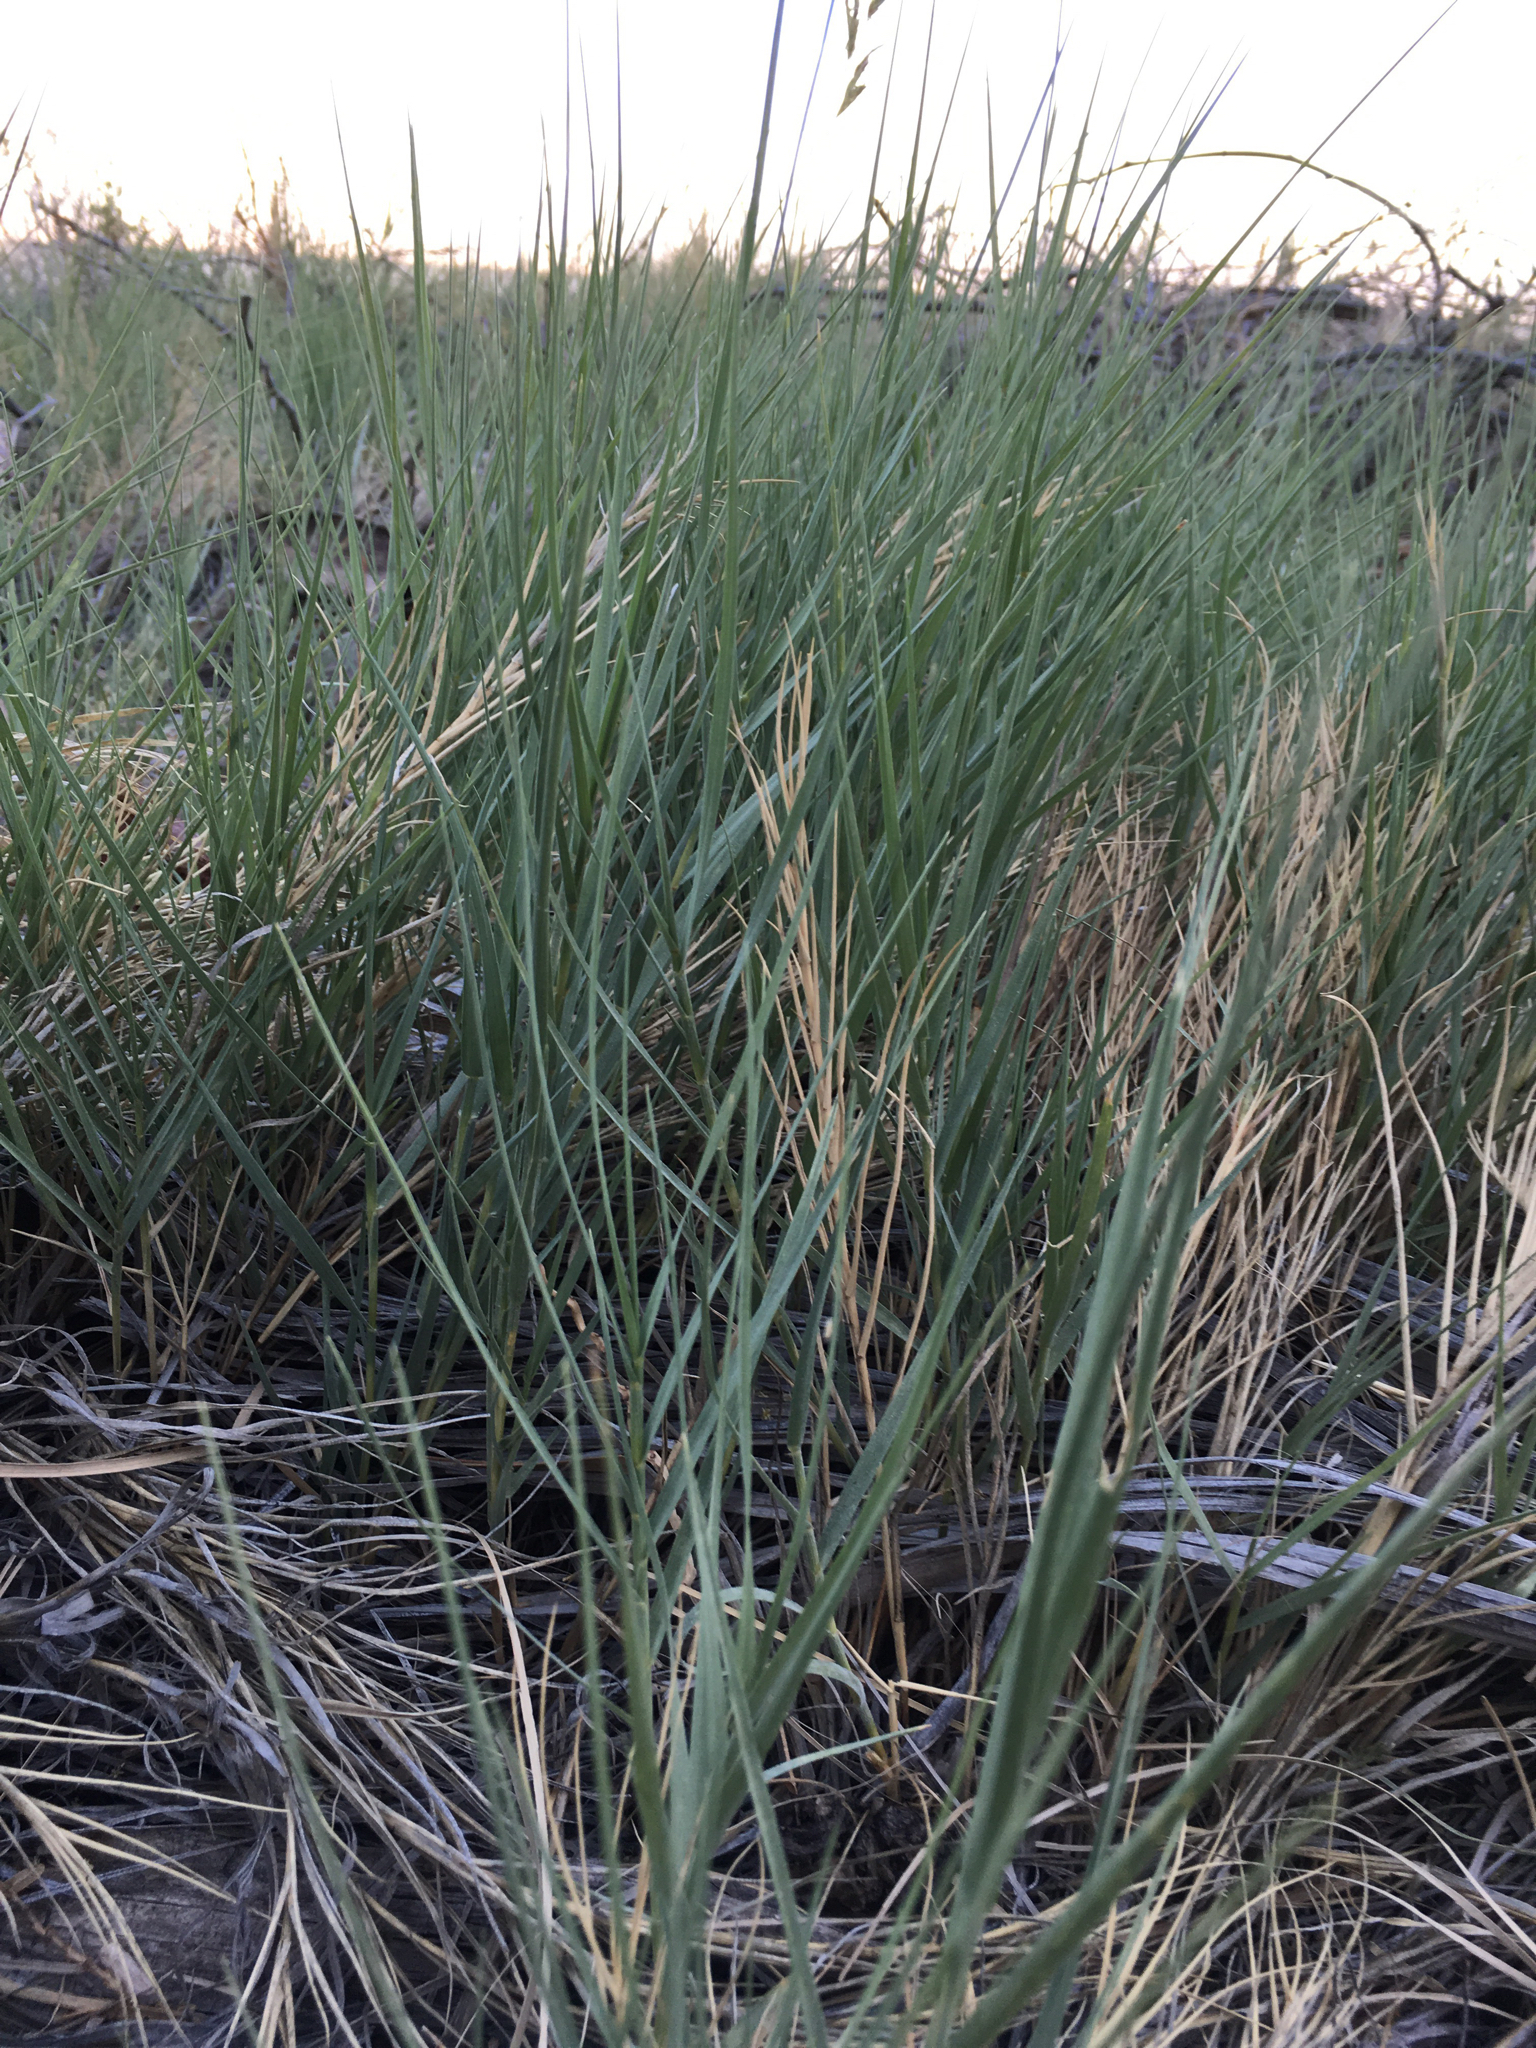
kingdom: Plantae
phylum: Tracheophyta
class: Liliopsida
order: Poales
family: Poaceae
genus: Distichlis
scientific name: Distichlis spicata
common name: Saltgrass
